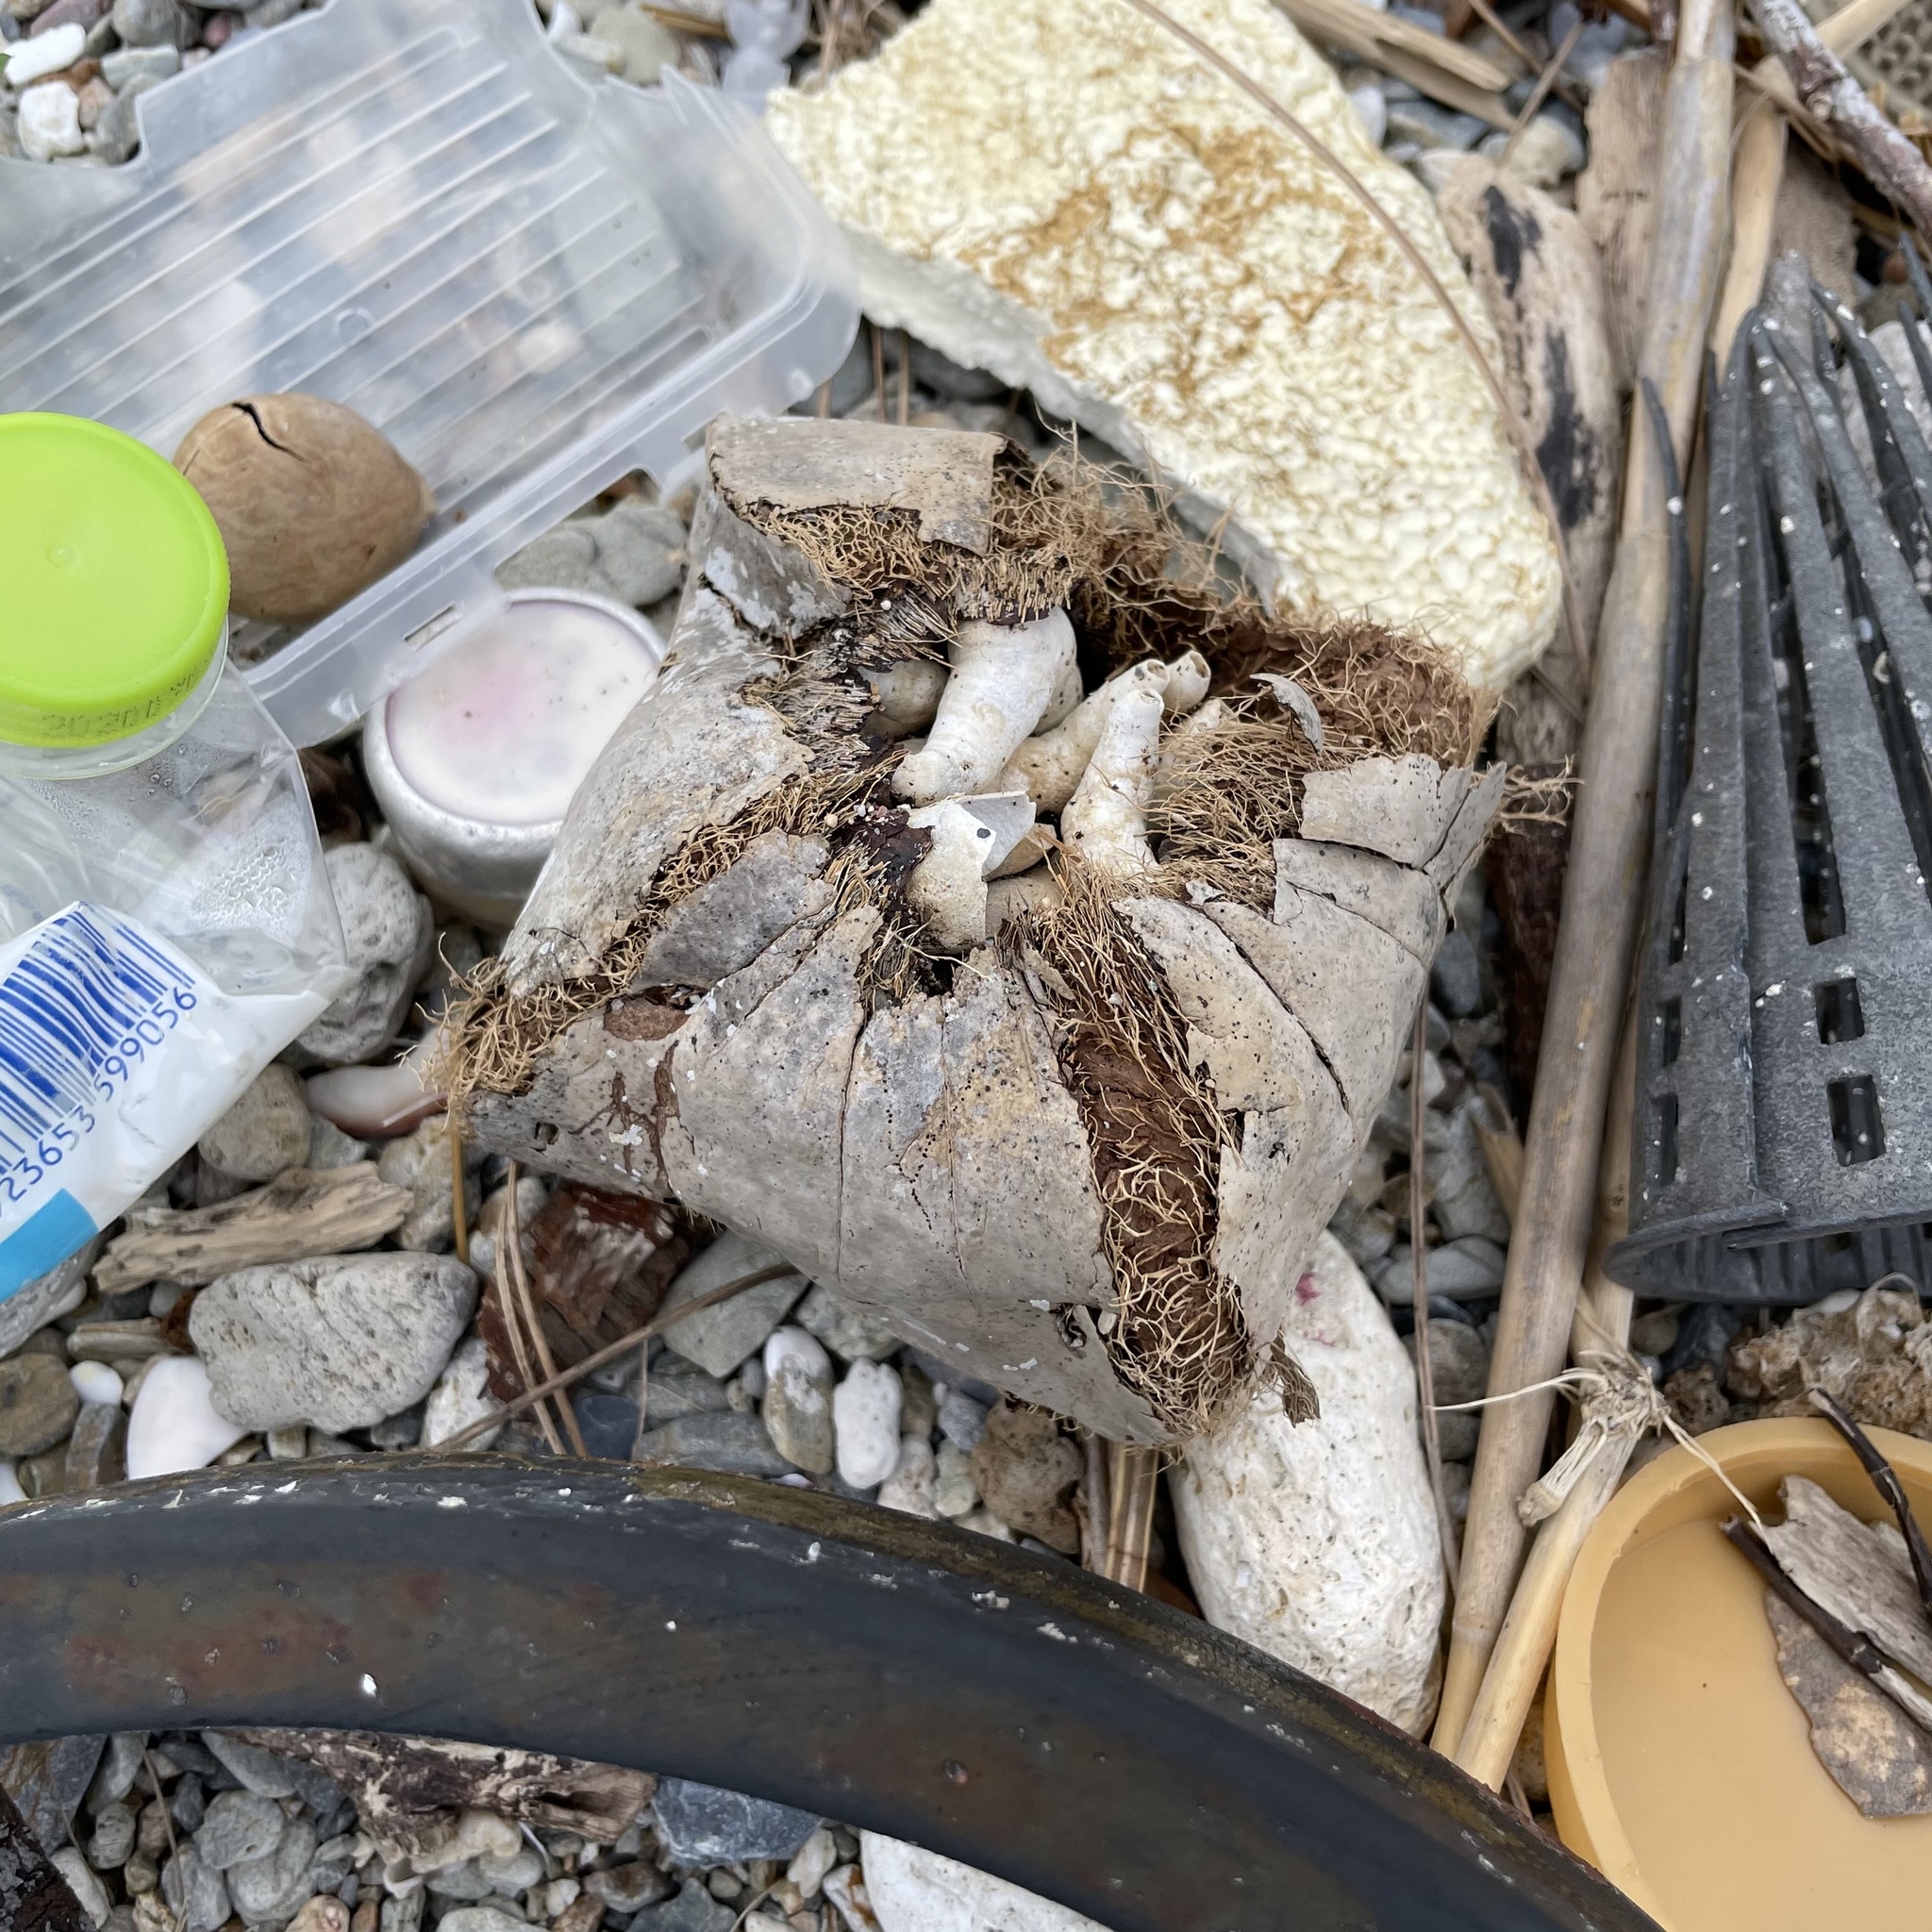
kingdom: Plantae
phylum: Tracheophyta
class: Magnoliopsida
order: Ericales
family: Lecythidaceae
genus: Barringtonia
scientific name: Barringtonia asiatica
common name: Mango-pine
